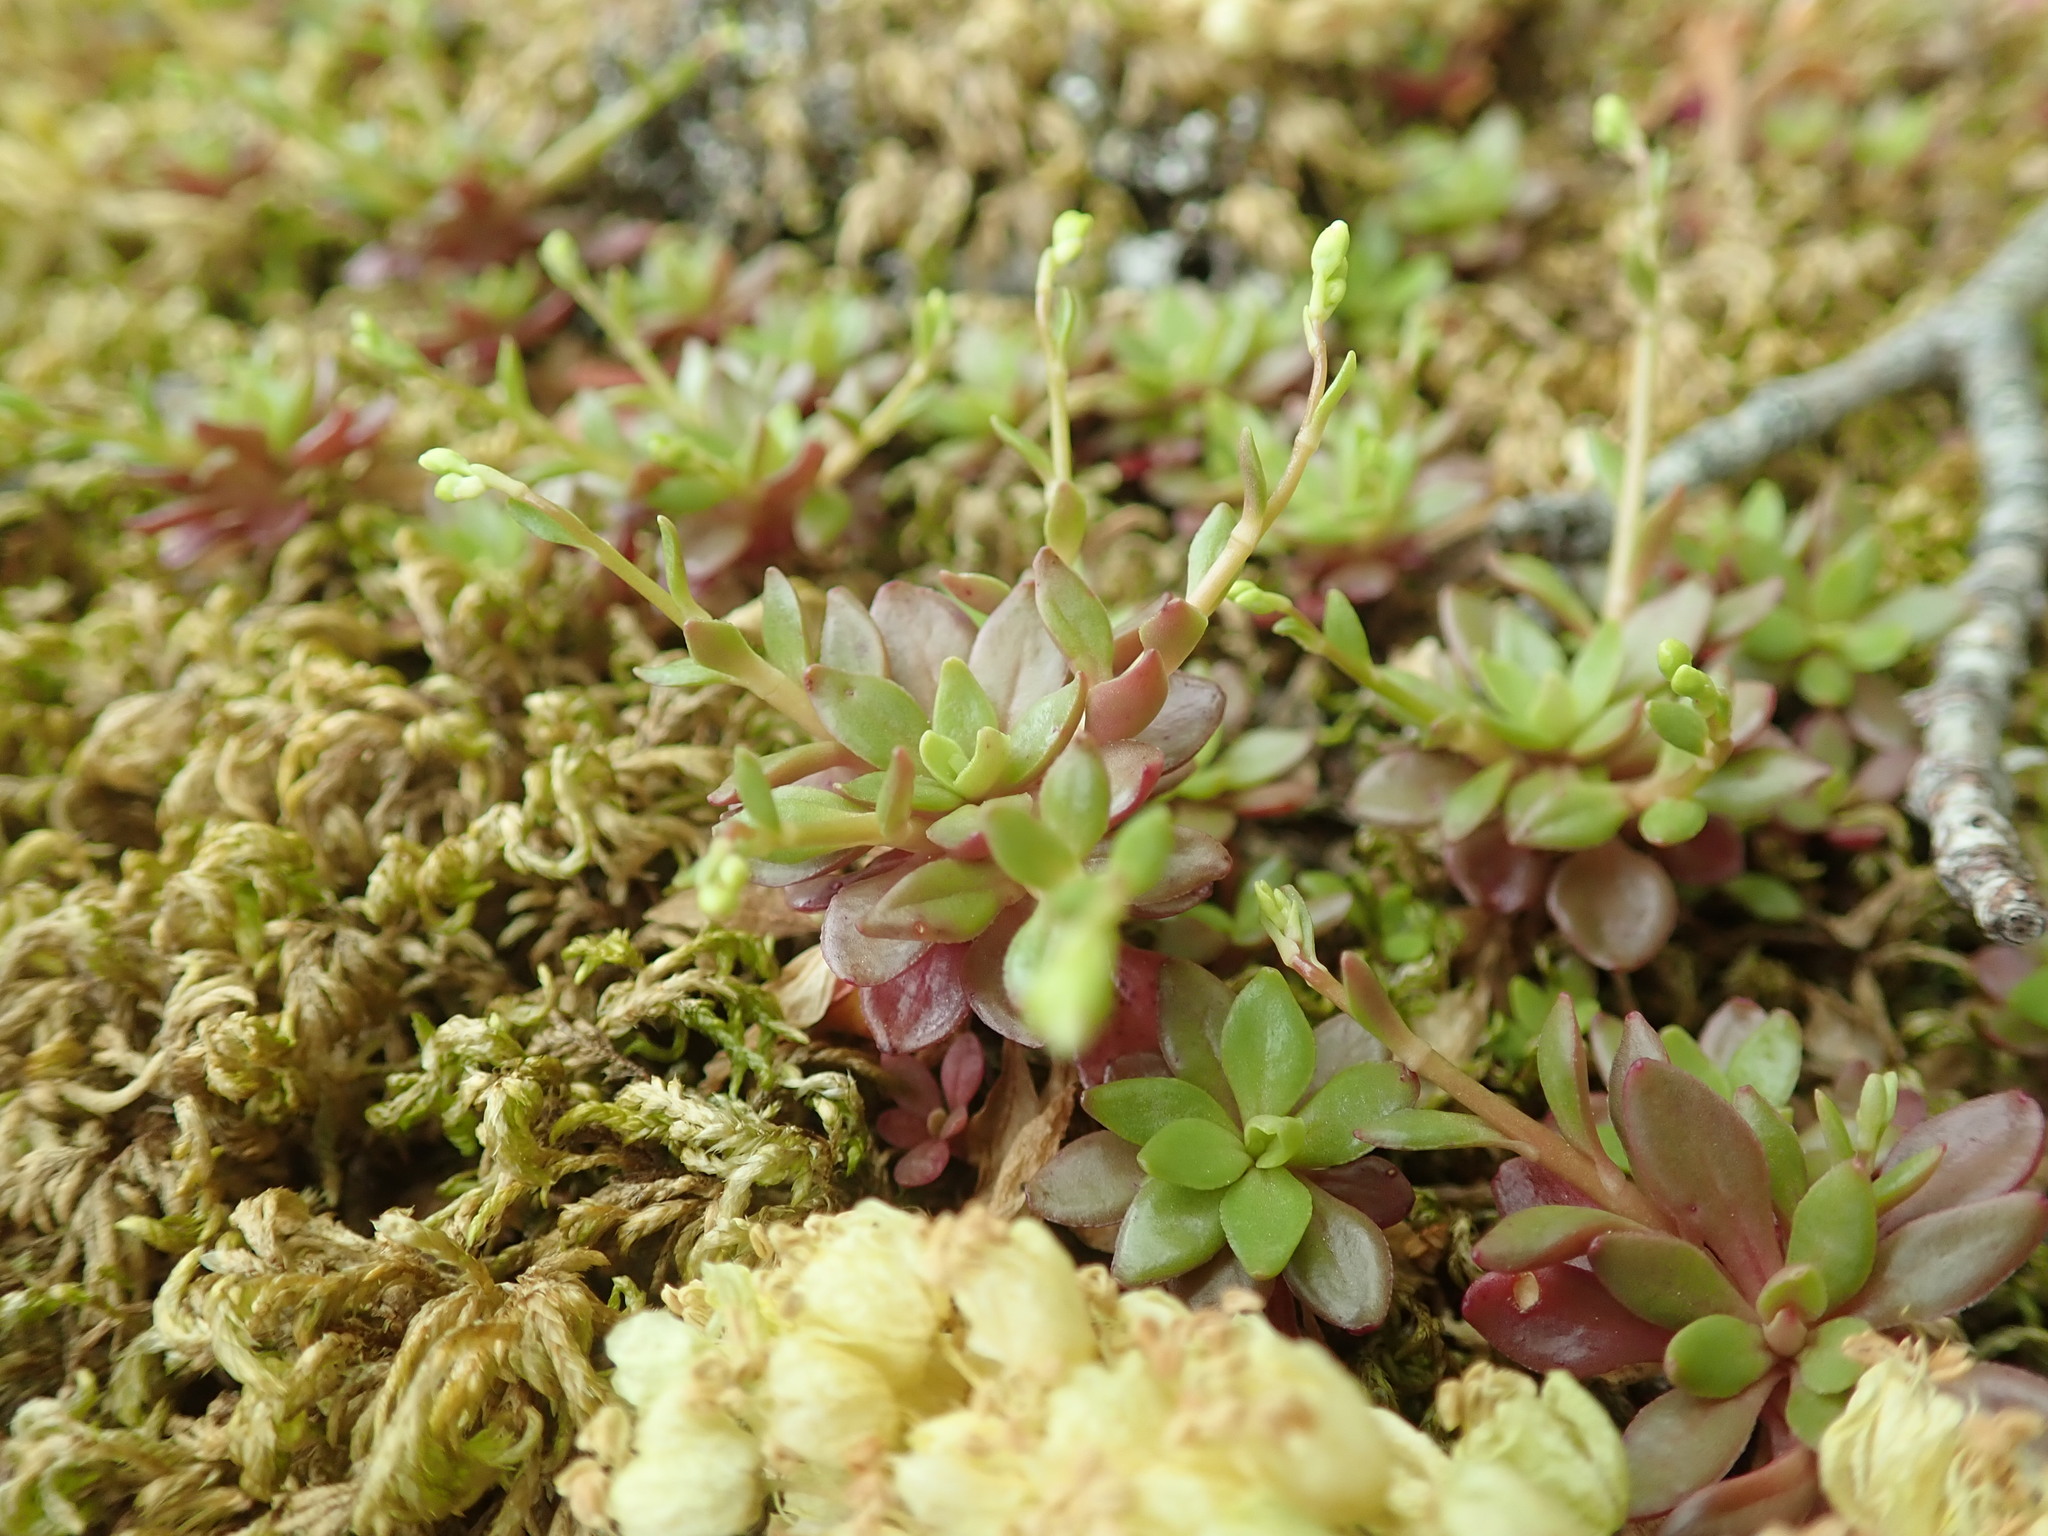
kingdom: Plantae
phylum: Tracheophyta
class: Magnoliopsida
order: Caryophyllales
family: Montiaceae
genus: Montia
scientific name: Montia parvifolia
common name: Small-leaved blinks
